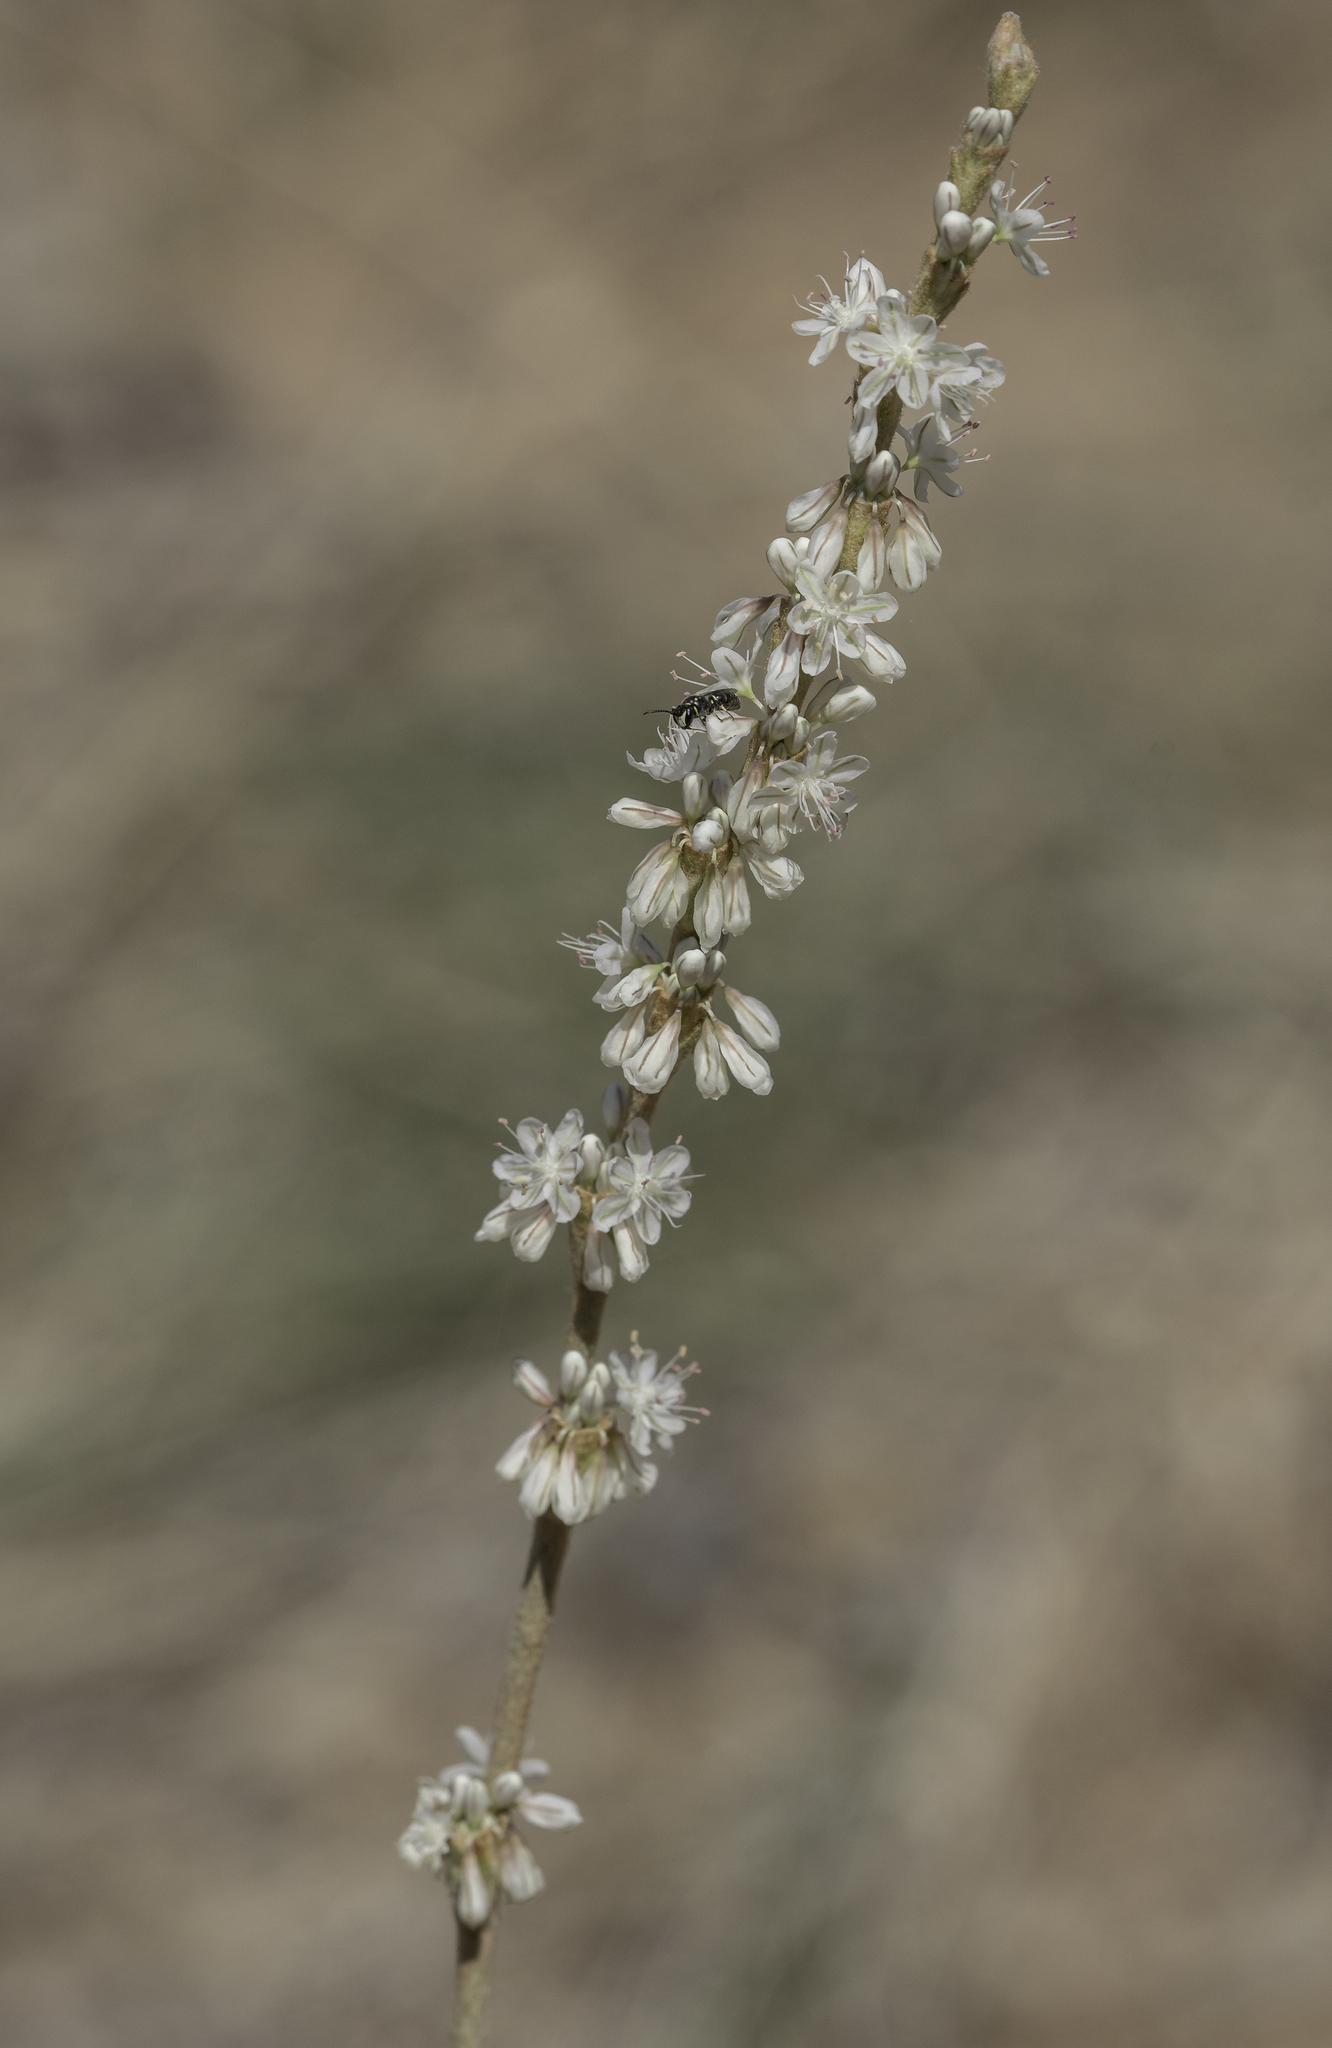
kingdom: Plantae
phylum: Tracheophyta
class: Magnoliopsida
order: Caryophyllales
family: Polygonaceae
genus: Eriogonum
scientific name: Eriogonum racemosum
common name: Redroot wild buckwheat
